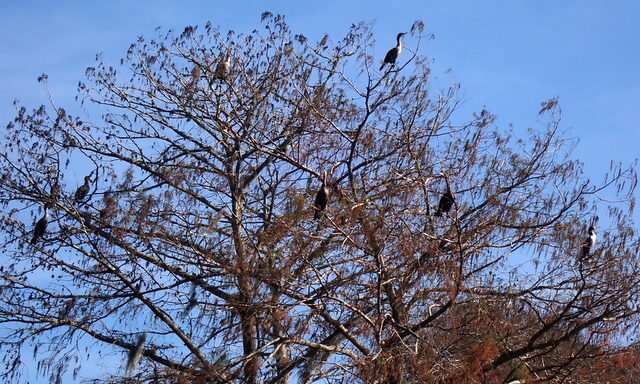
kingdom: Animalia
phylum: Chordata
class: Aves
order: Suliformes
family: Phalacrocoracidae
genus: Phalacrocorax
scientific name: Phalacrocorax auritus
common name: Double-crested cormorant
